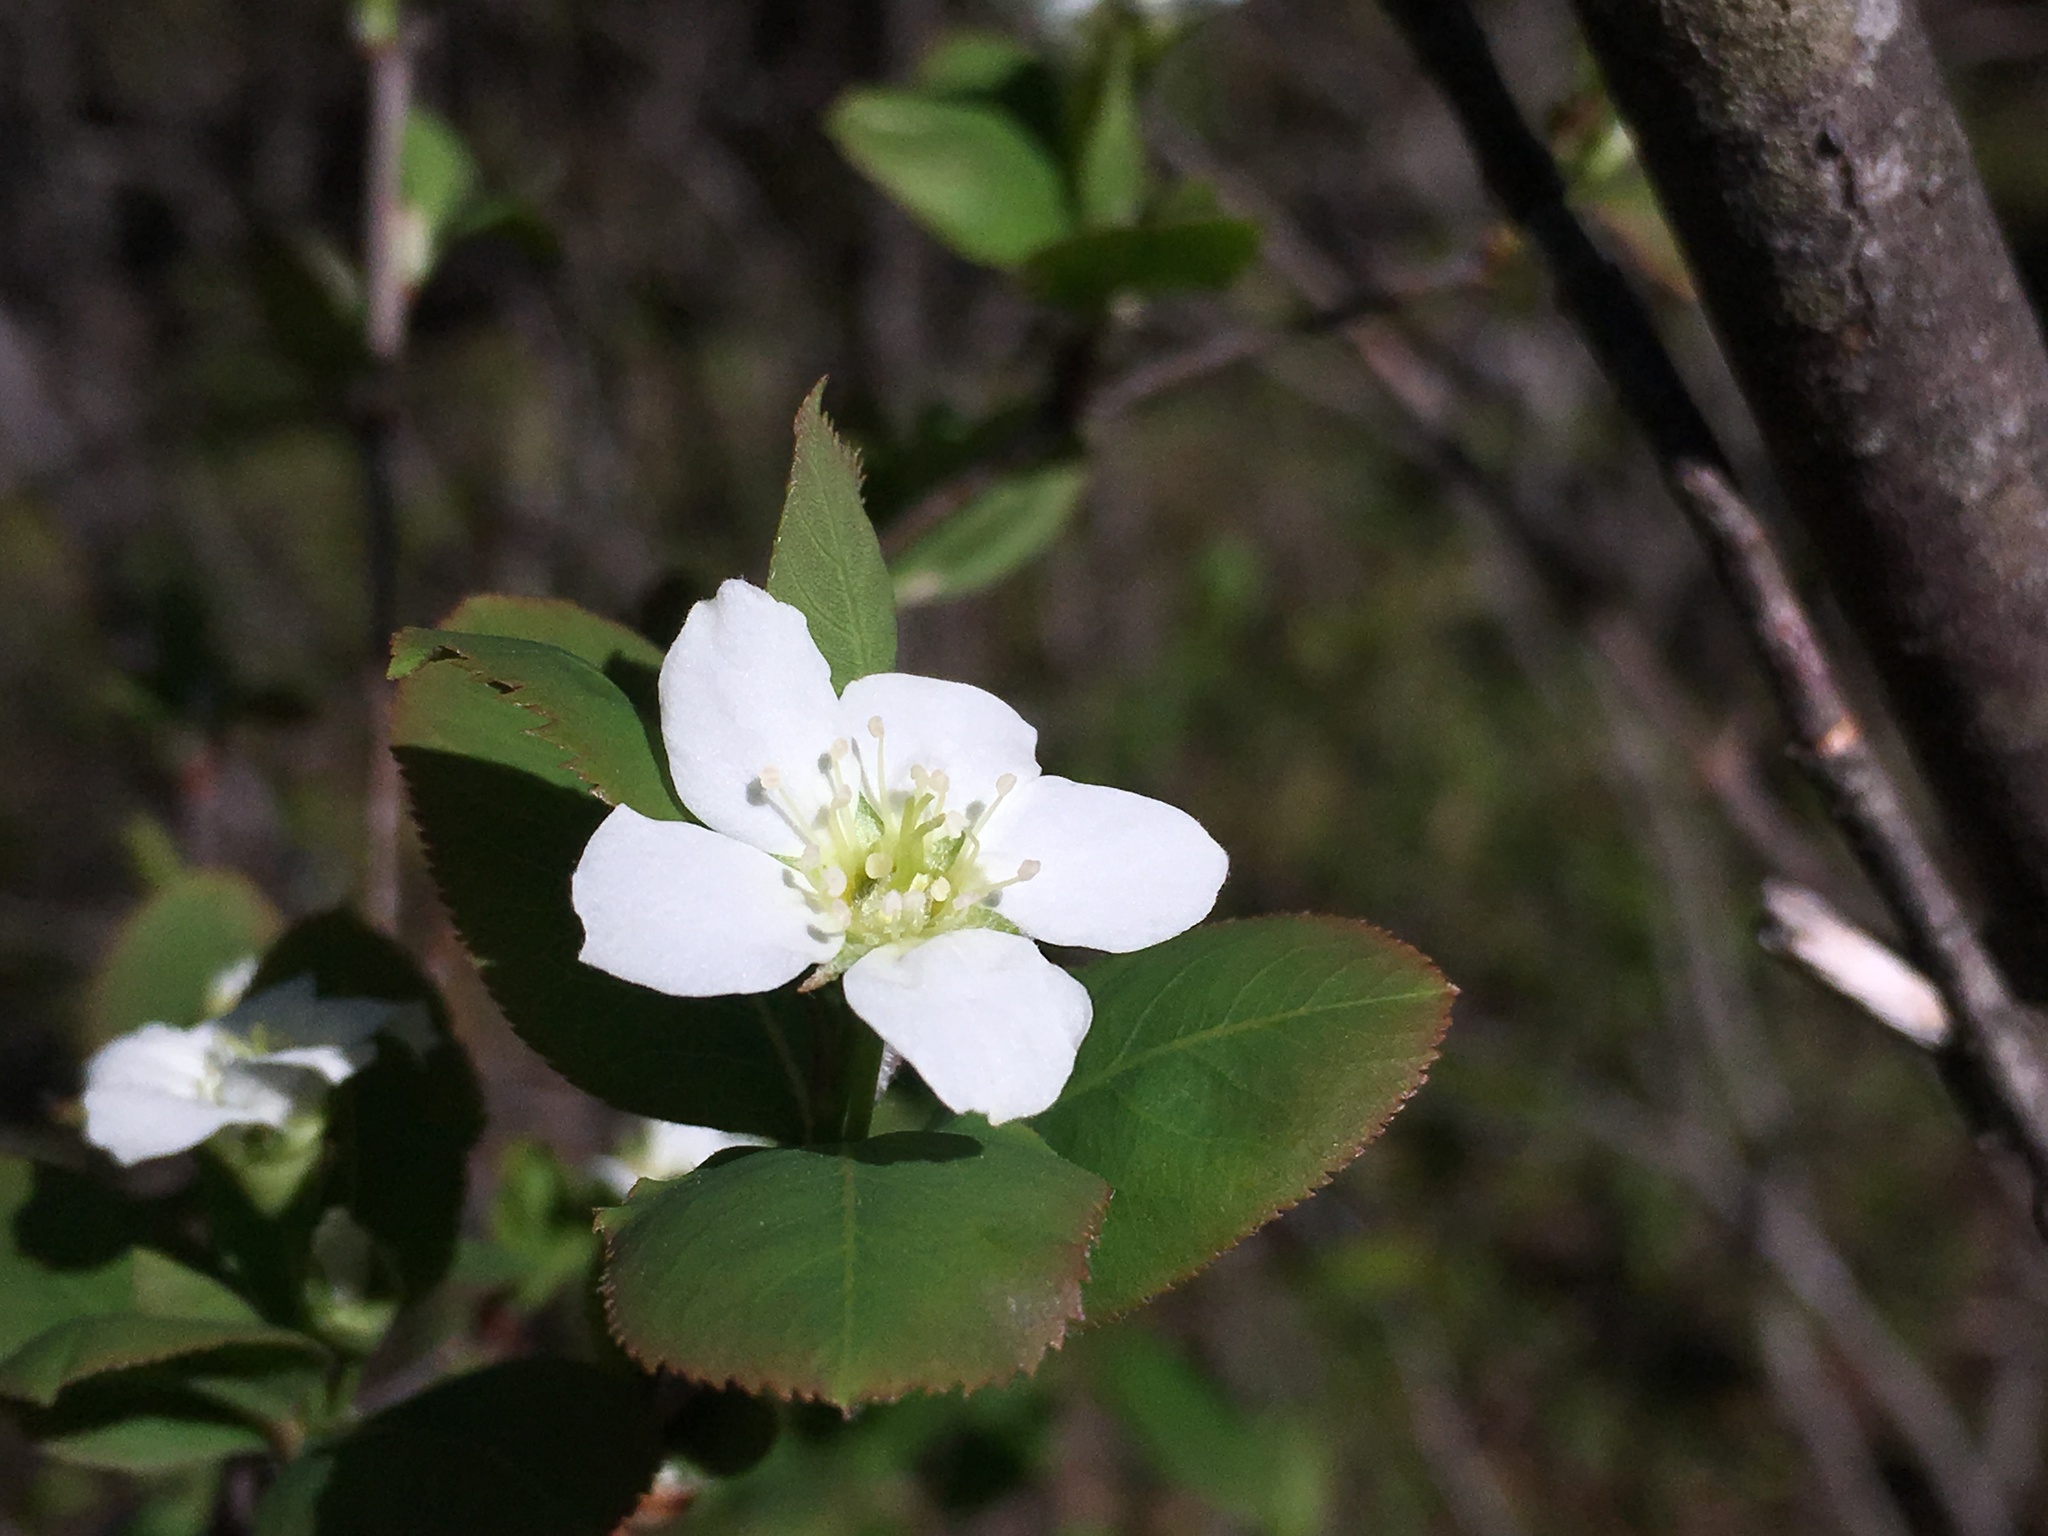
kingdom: Plantae
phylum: Tracheophyta
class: Magnoliopsida
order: Rosales
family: Rosaceae
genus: Amelanchier
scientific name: Amelanchier bartramiana
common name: Mountain serviceberry
